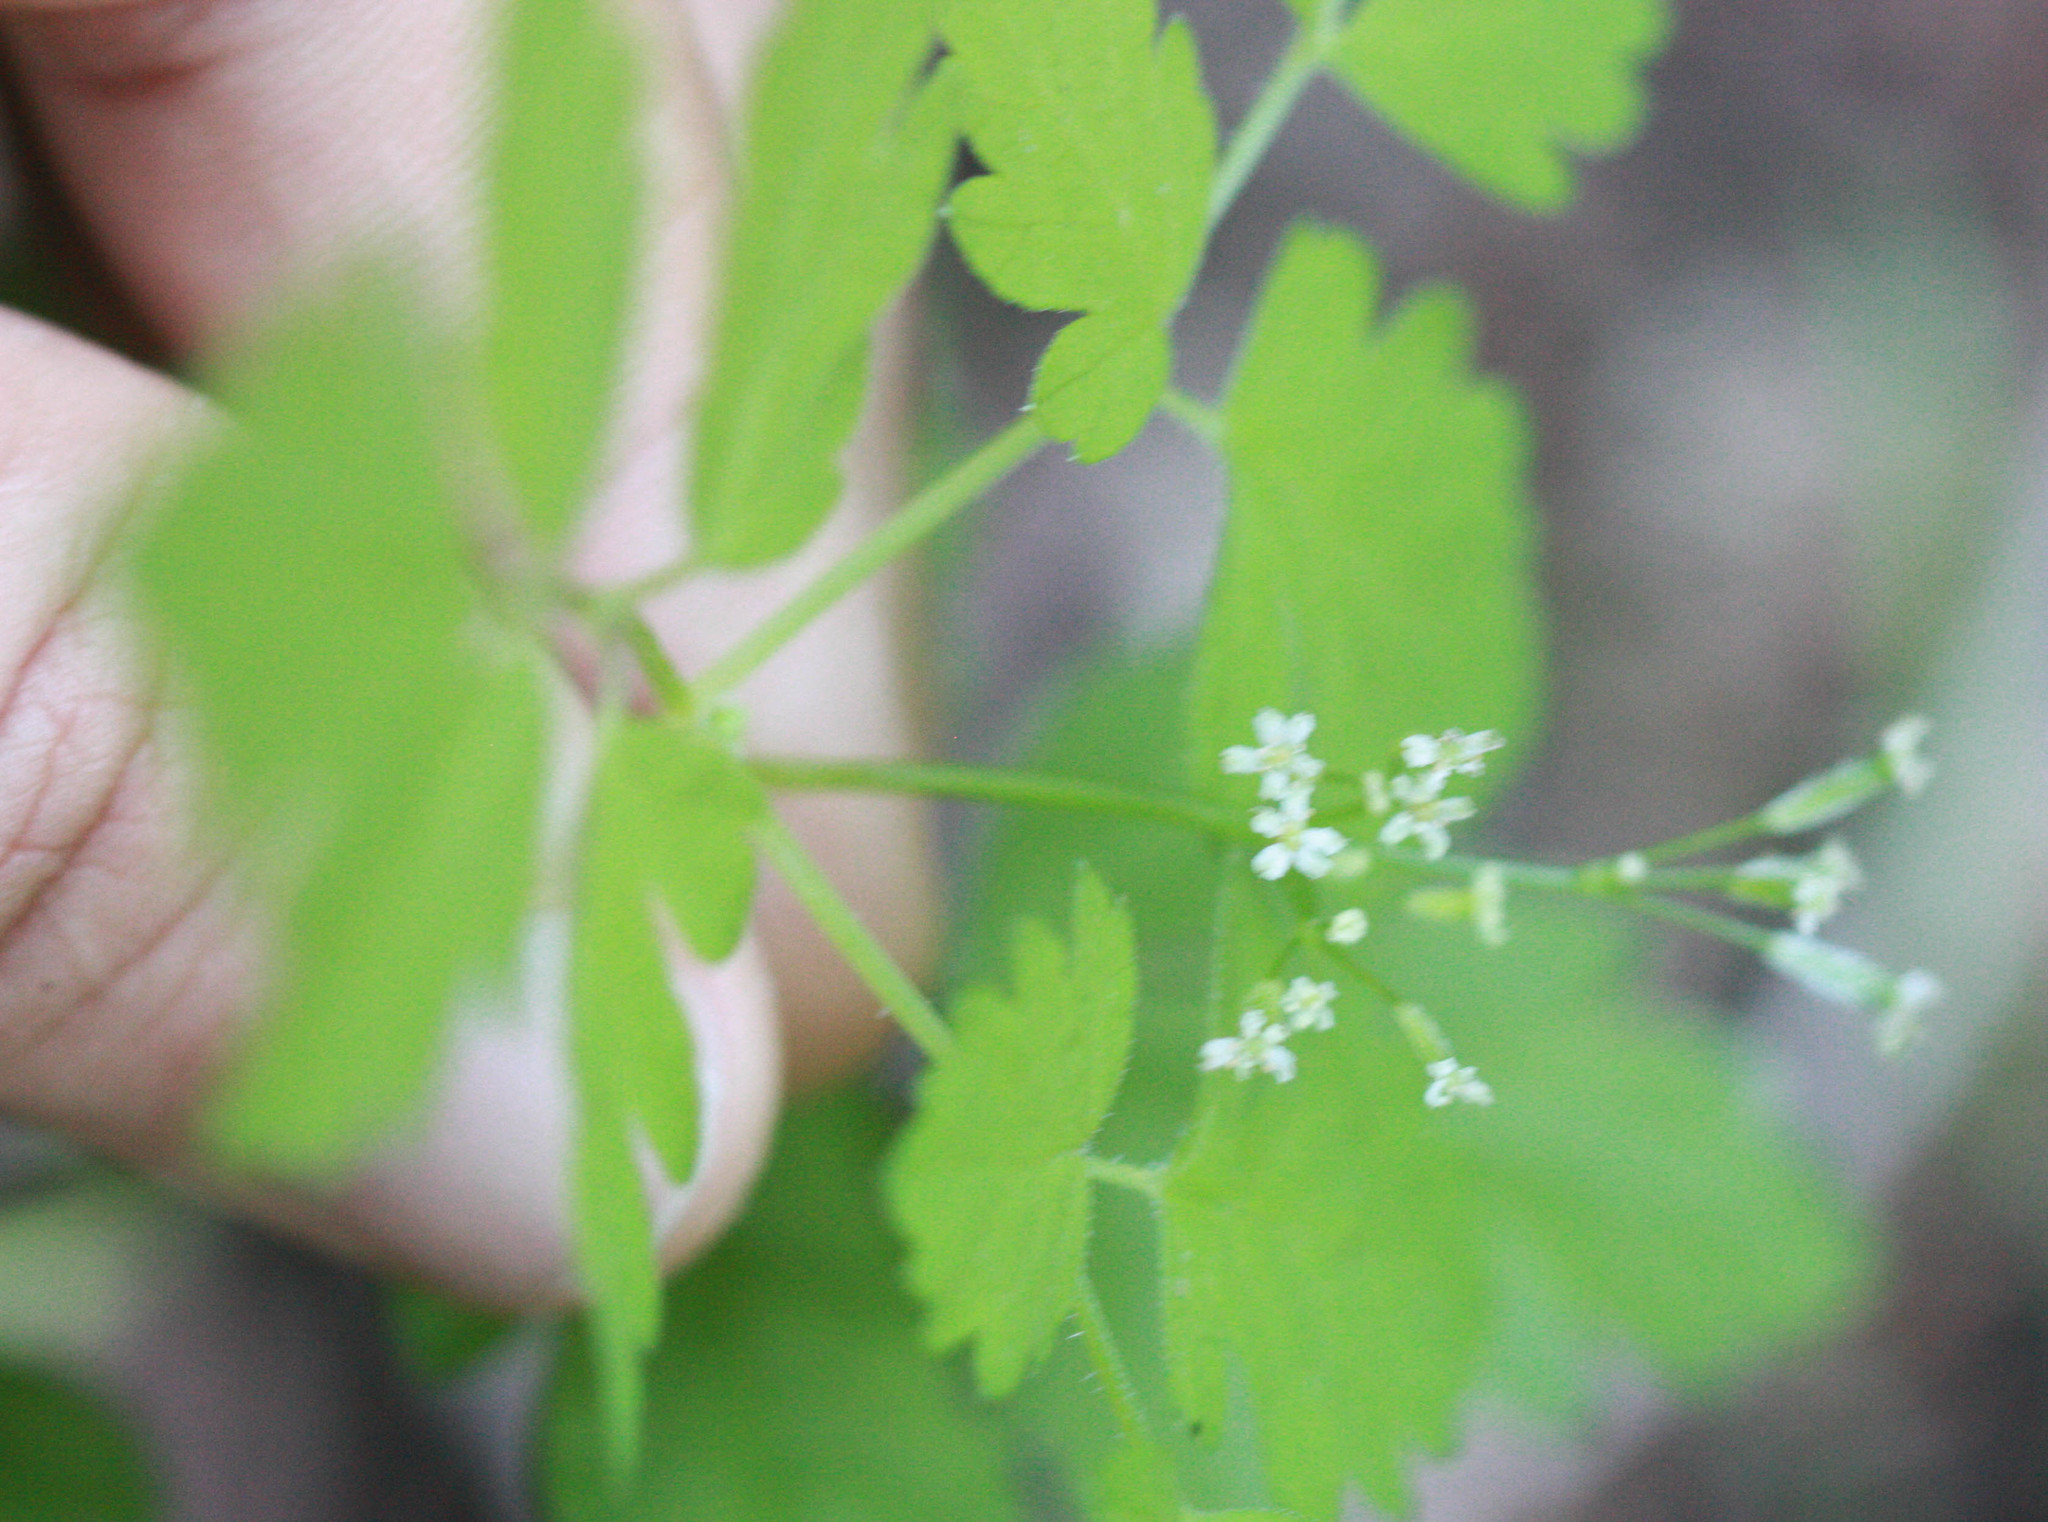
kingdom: Plantae
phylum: Tracheophyta
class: Magnoliopsida
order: Apiales
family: Apiaceae
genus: Osmorhiza
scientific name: Osmorhiza berteroi
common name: Mountain sweet cicely
